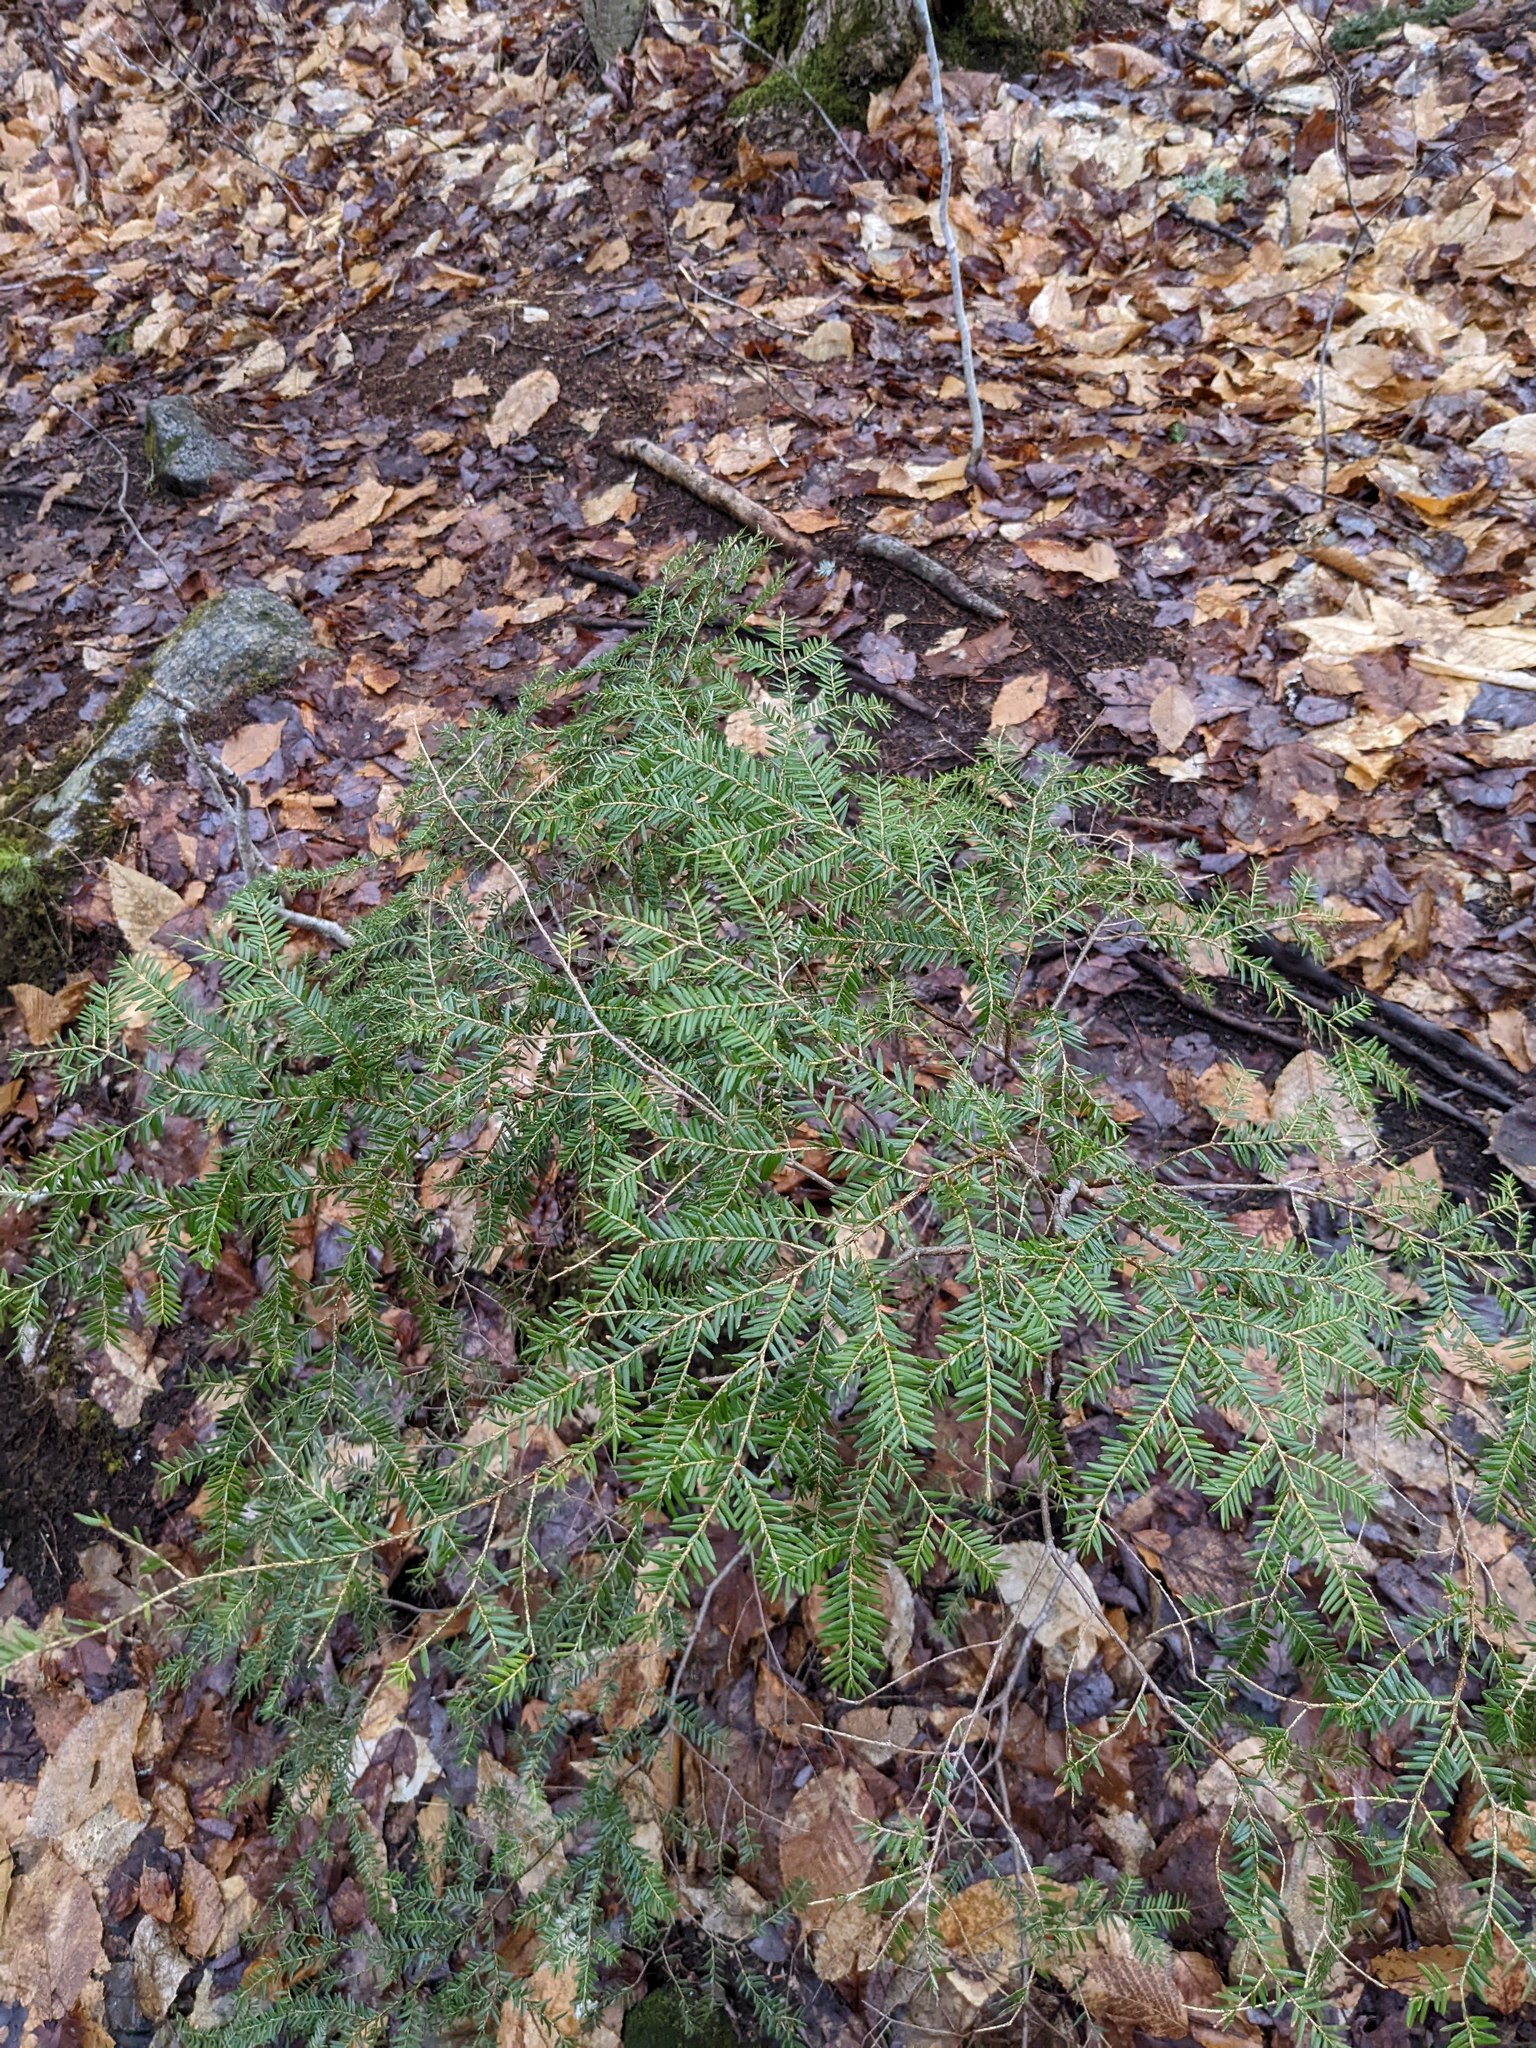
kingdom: Plantae
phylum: Tracheophyta
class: Pinopsida
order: Pinales
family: Pinaceae
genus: Tsuga
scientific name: Tsuga canadensis
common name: Eastern hemlock
